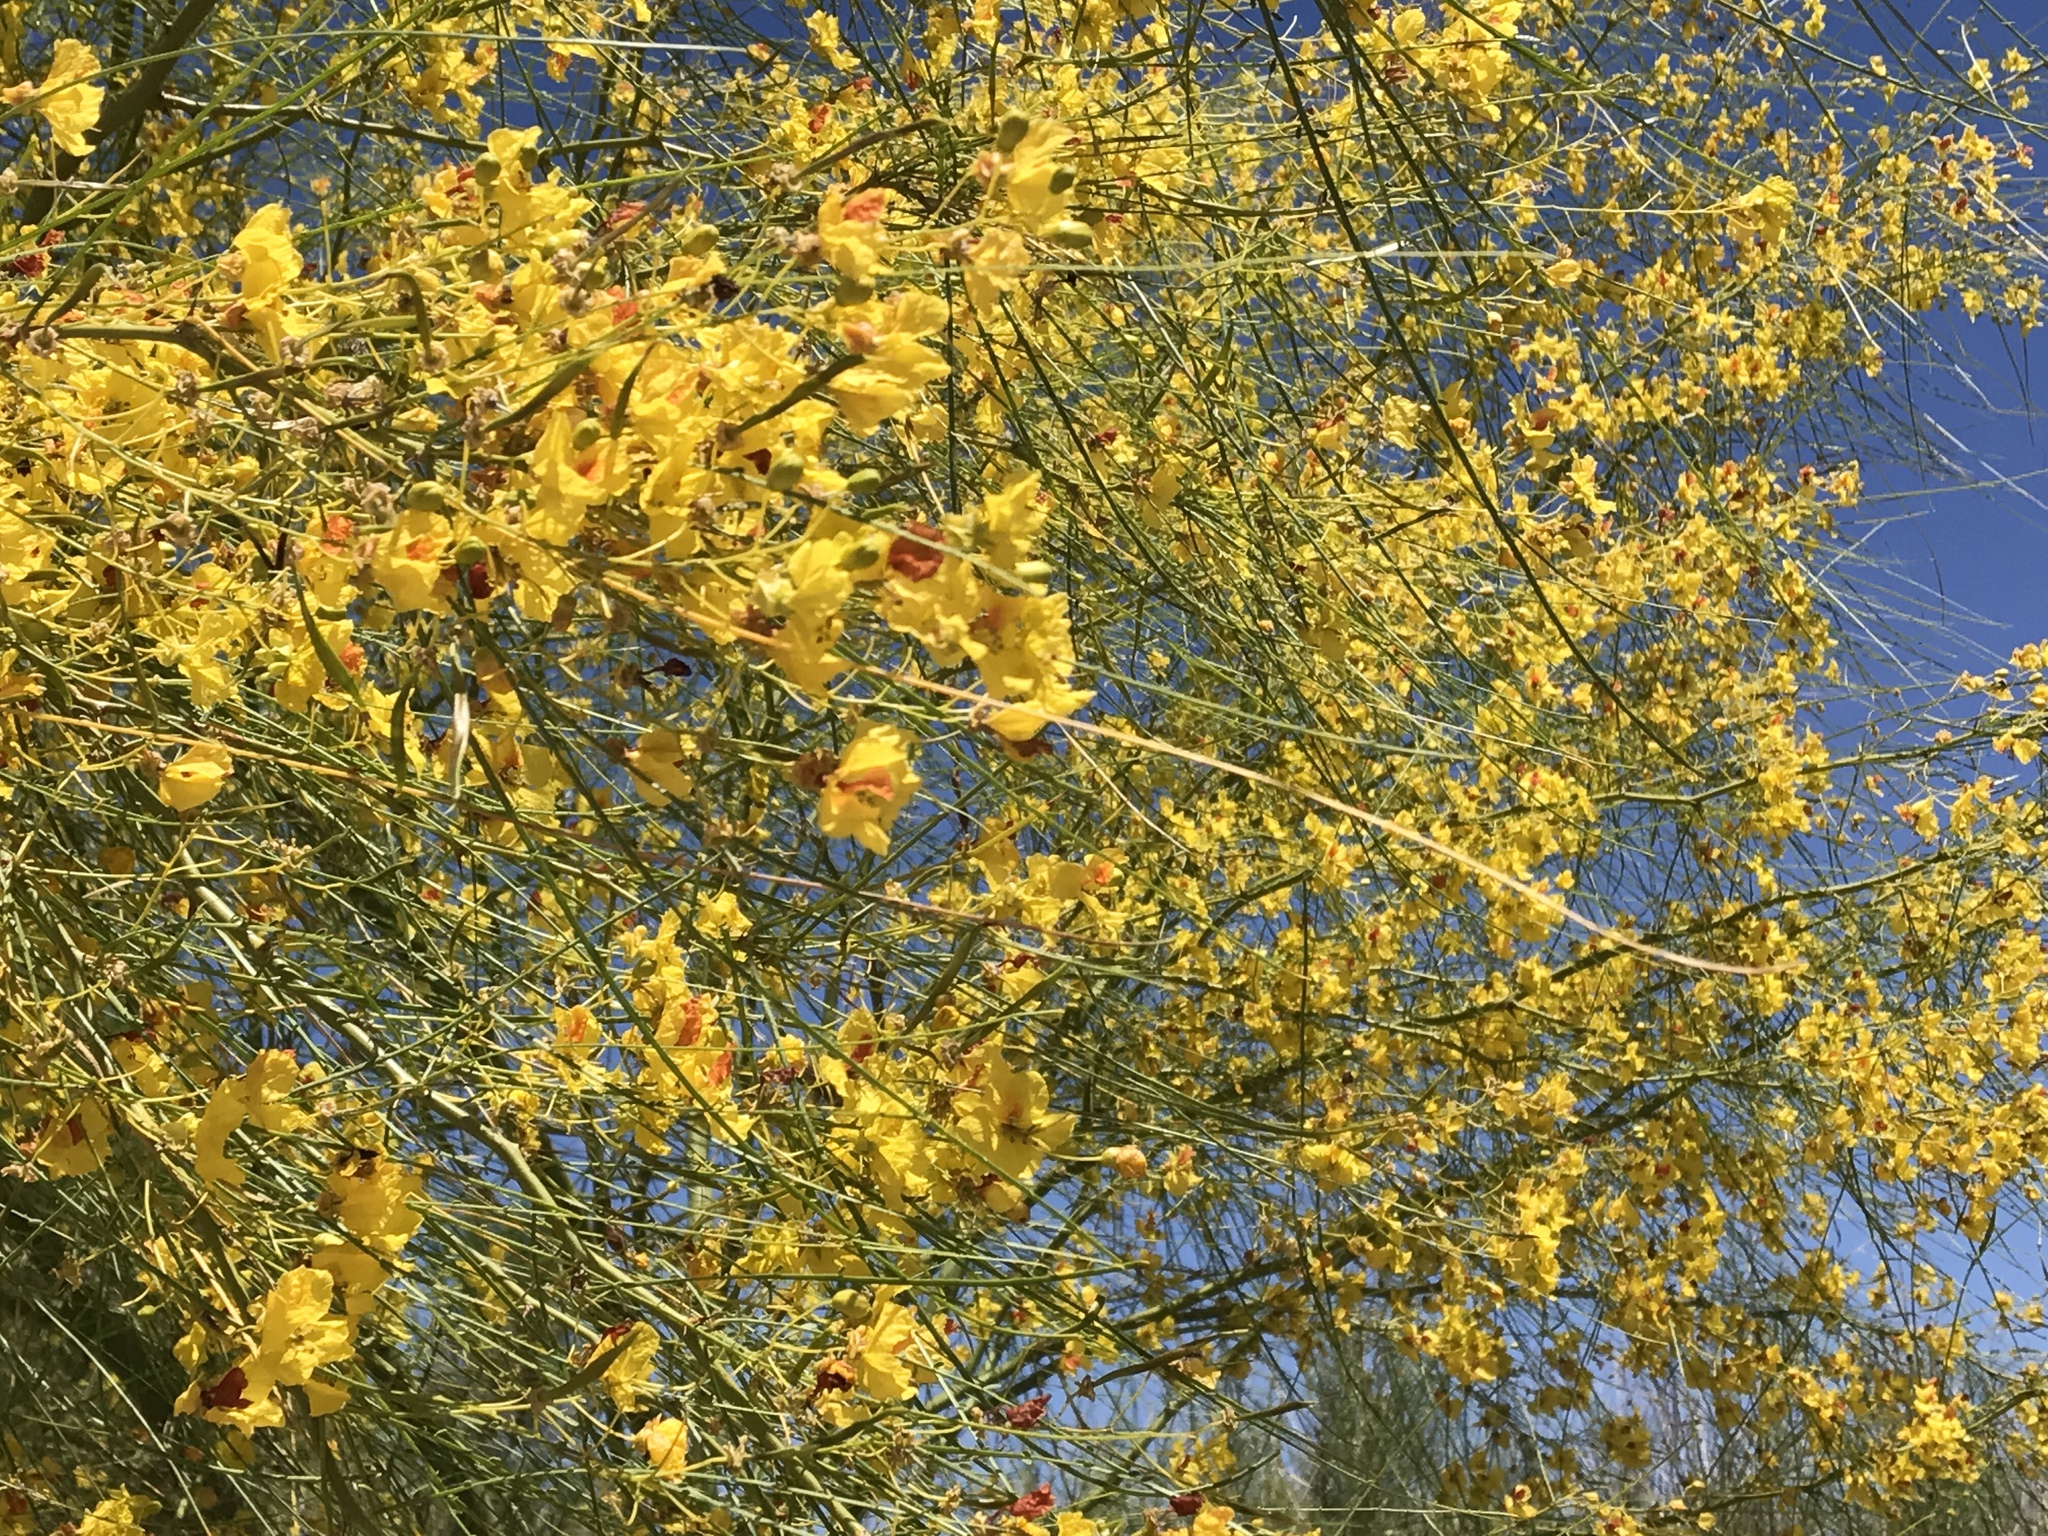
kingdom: Plantae
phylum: Tracheophyta
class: Magnoliopsida
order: Fabales
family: Fabaceae
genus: Parkinsonia
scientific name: Parkinsonia aculeata
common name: Jerusalem thorn
